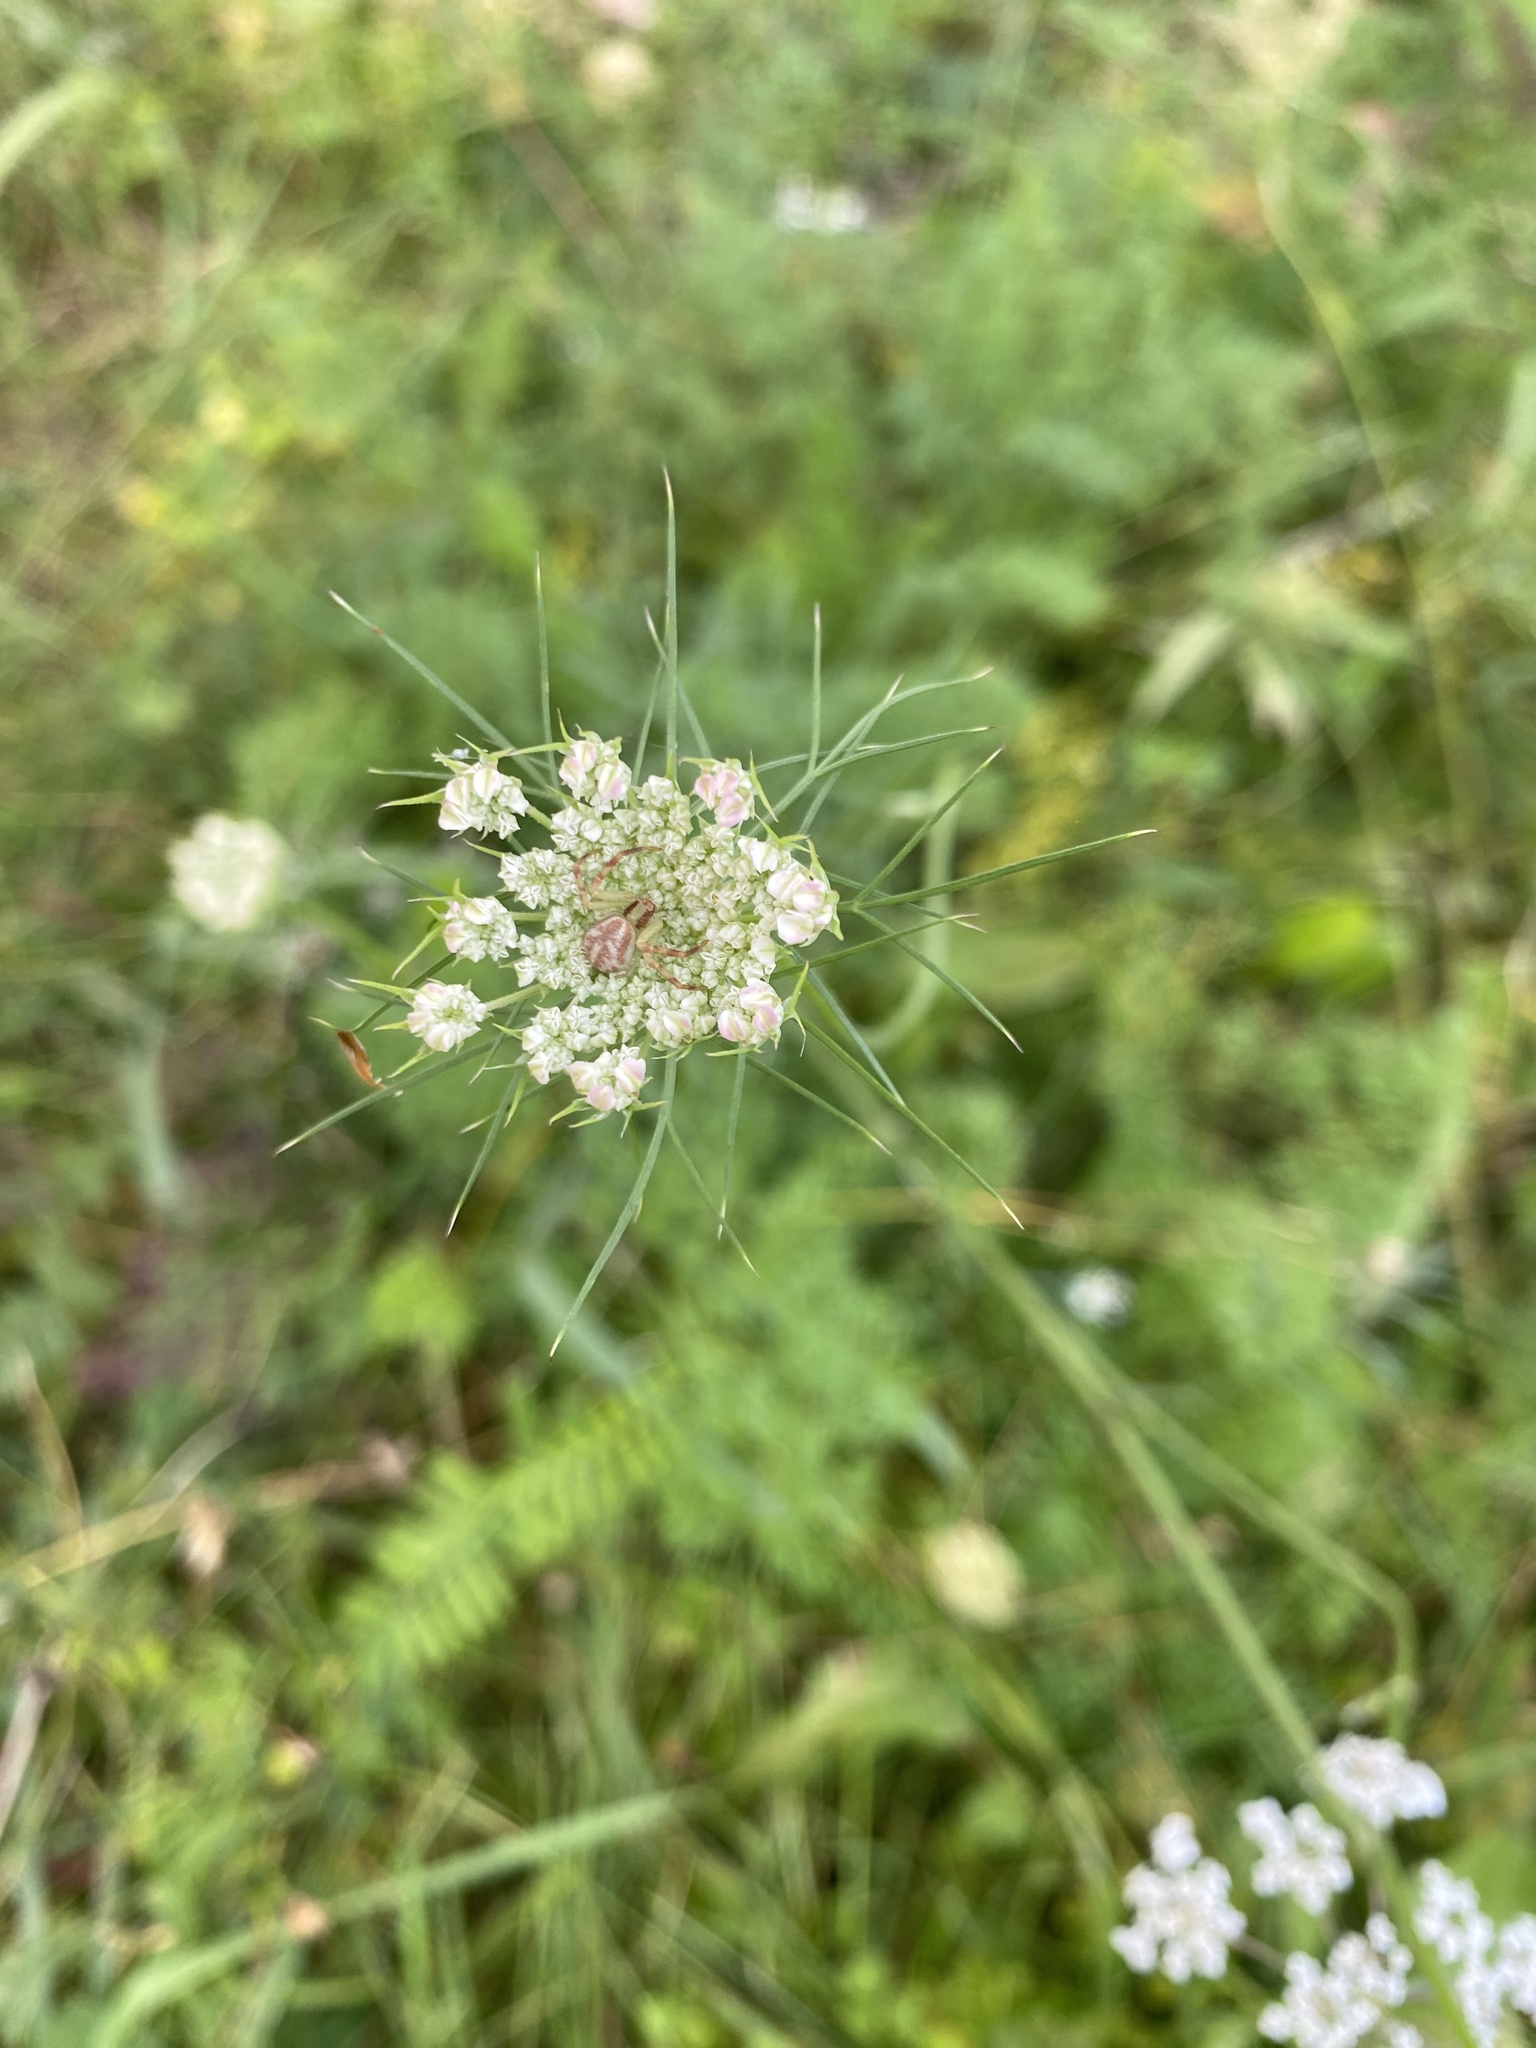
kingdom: Plantae
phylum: Tracheophyta
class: Magnoliopsida
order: Apiales
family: Apiaceae
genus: Daucus
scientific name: Daucus carota
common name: Wild carrot
